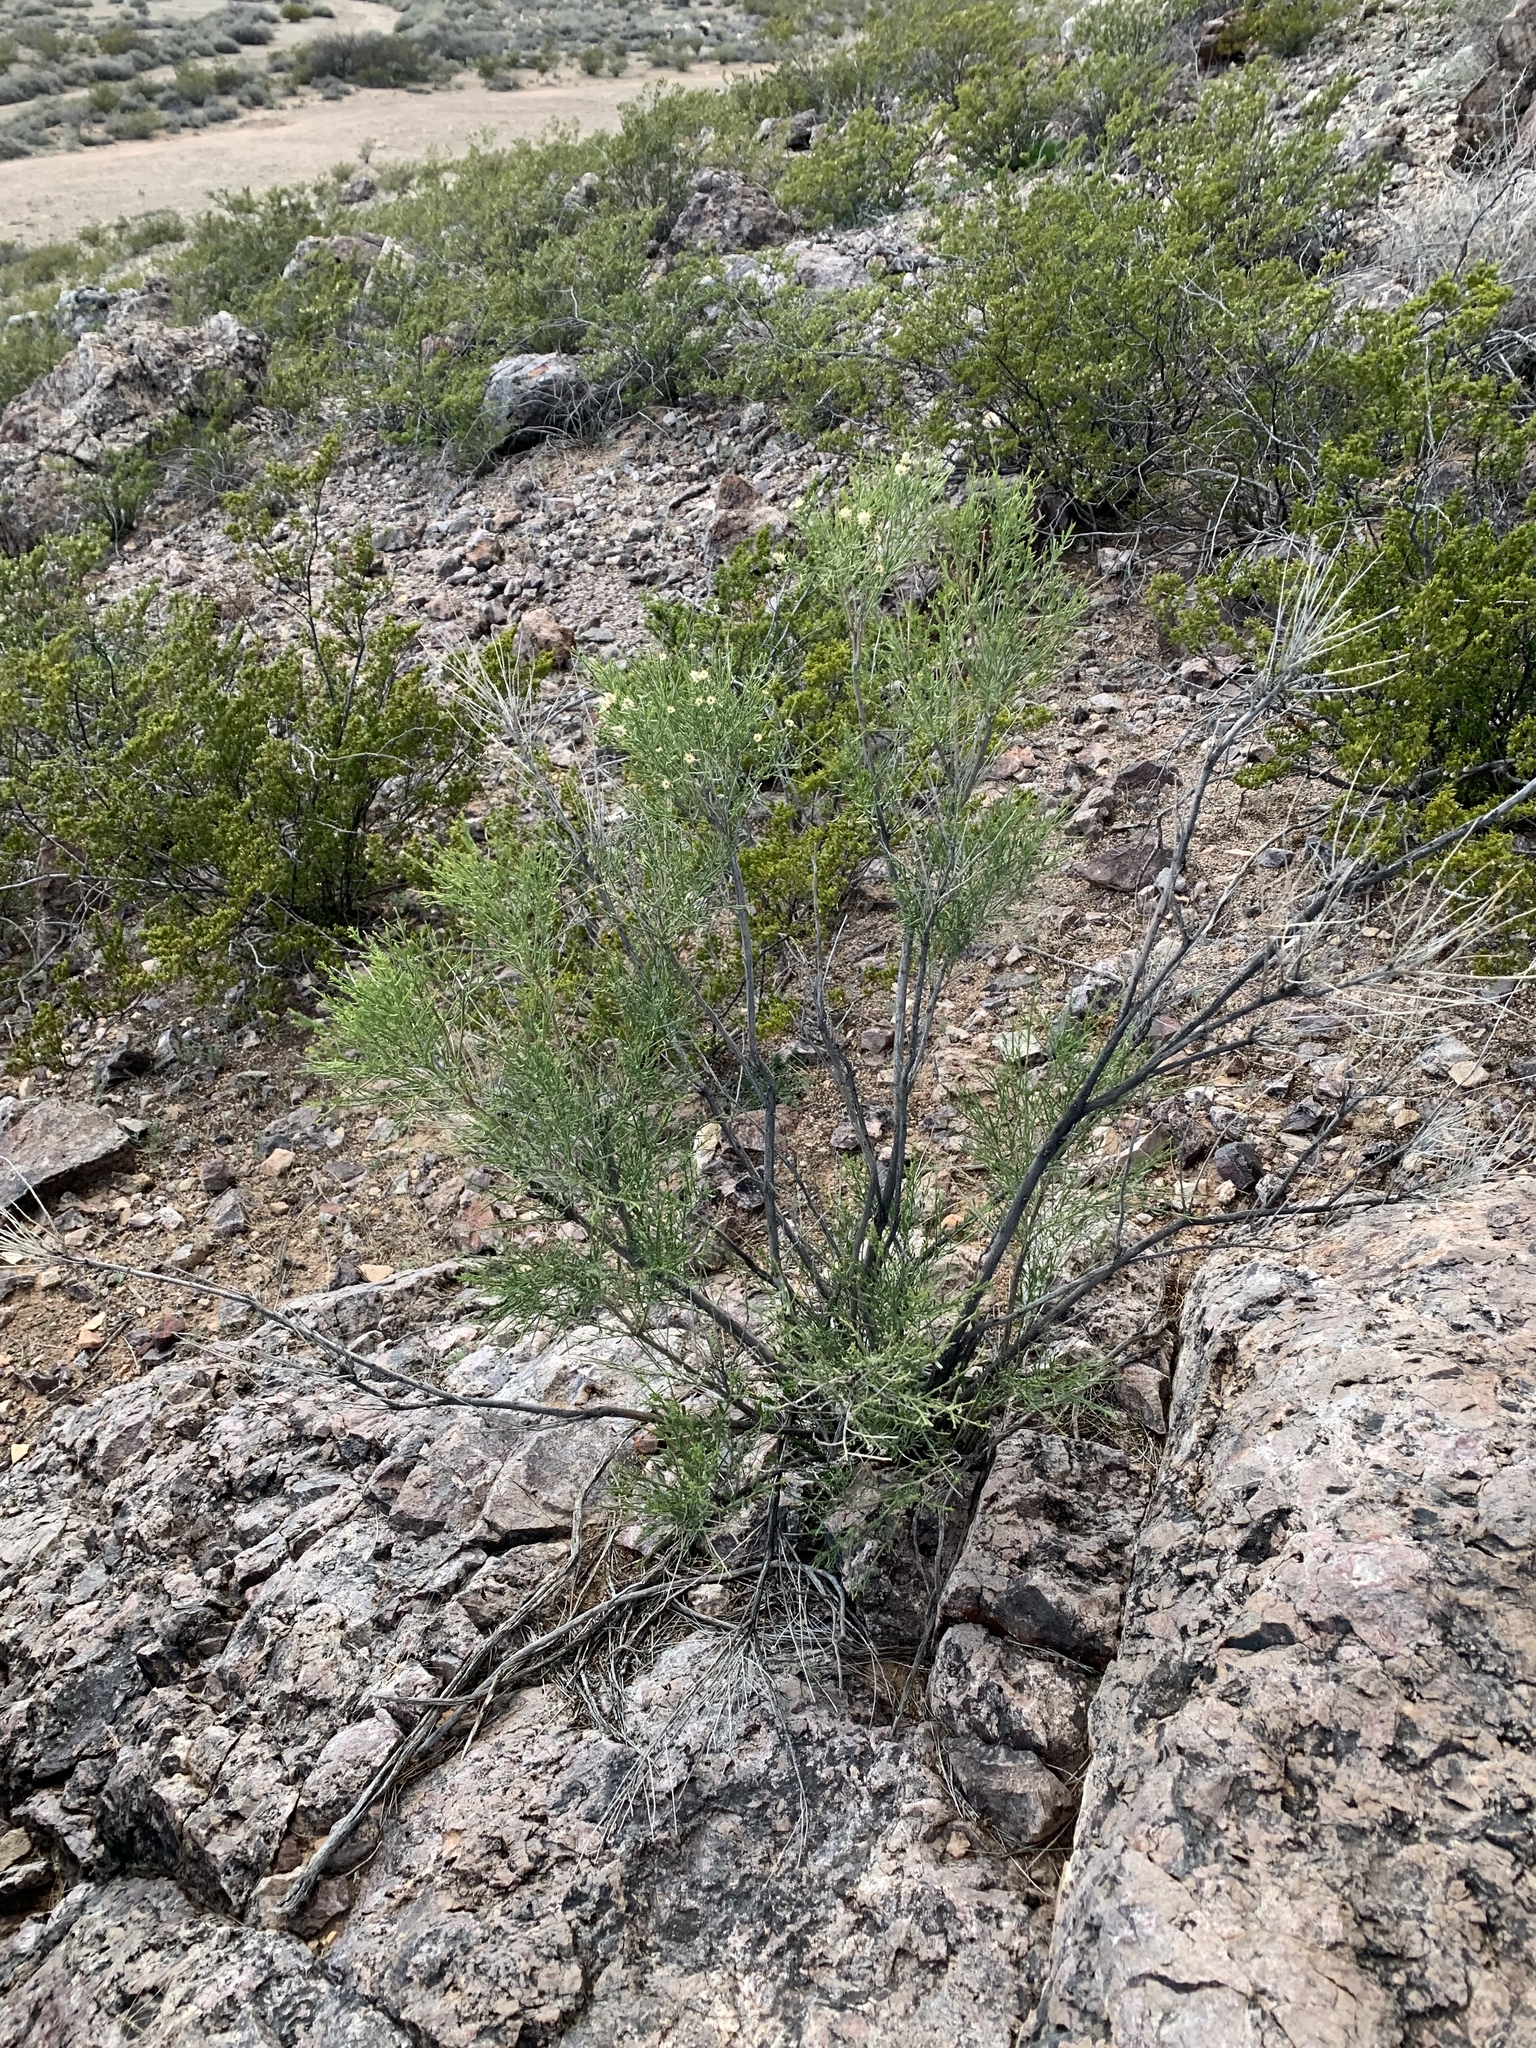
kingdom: Plantae
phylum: Tracheophyta
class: Magnoliopsida
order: Zygophyllales
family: Zygophyllaceae
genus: Larrea
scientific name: Larrea tridentata
